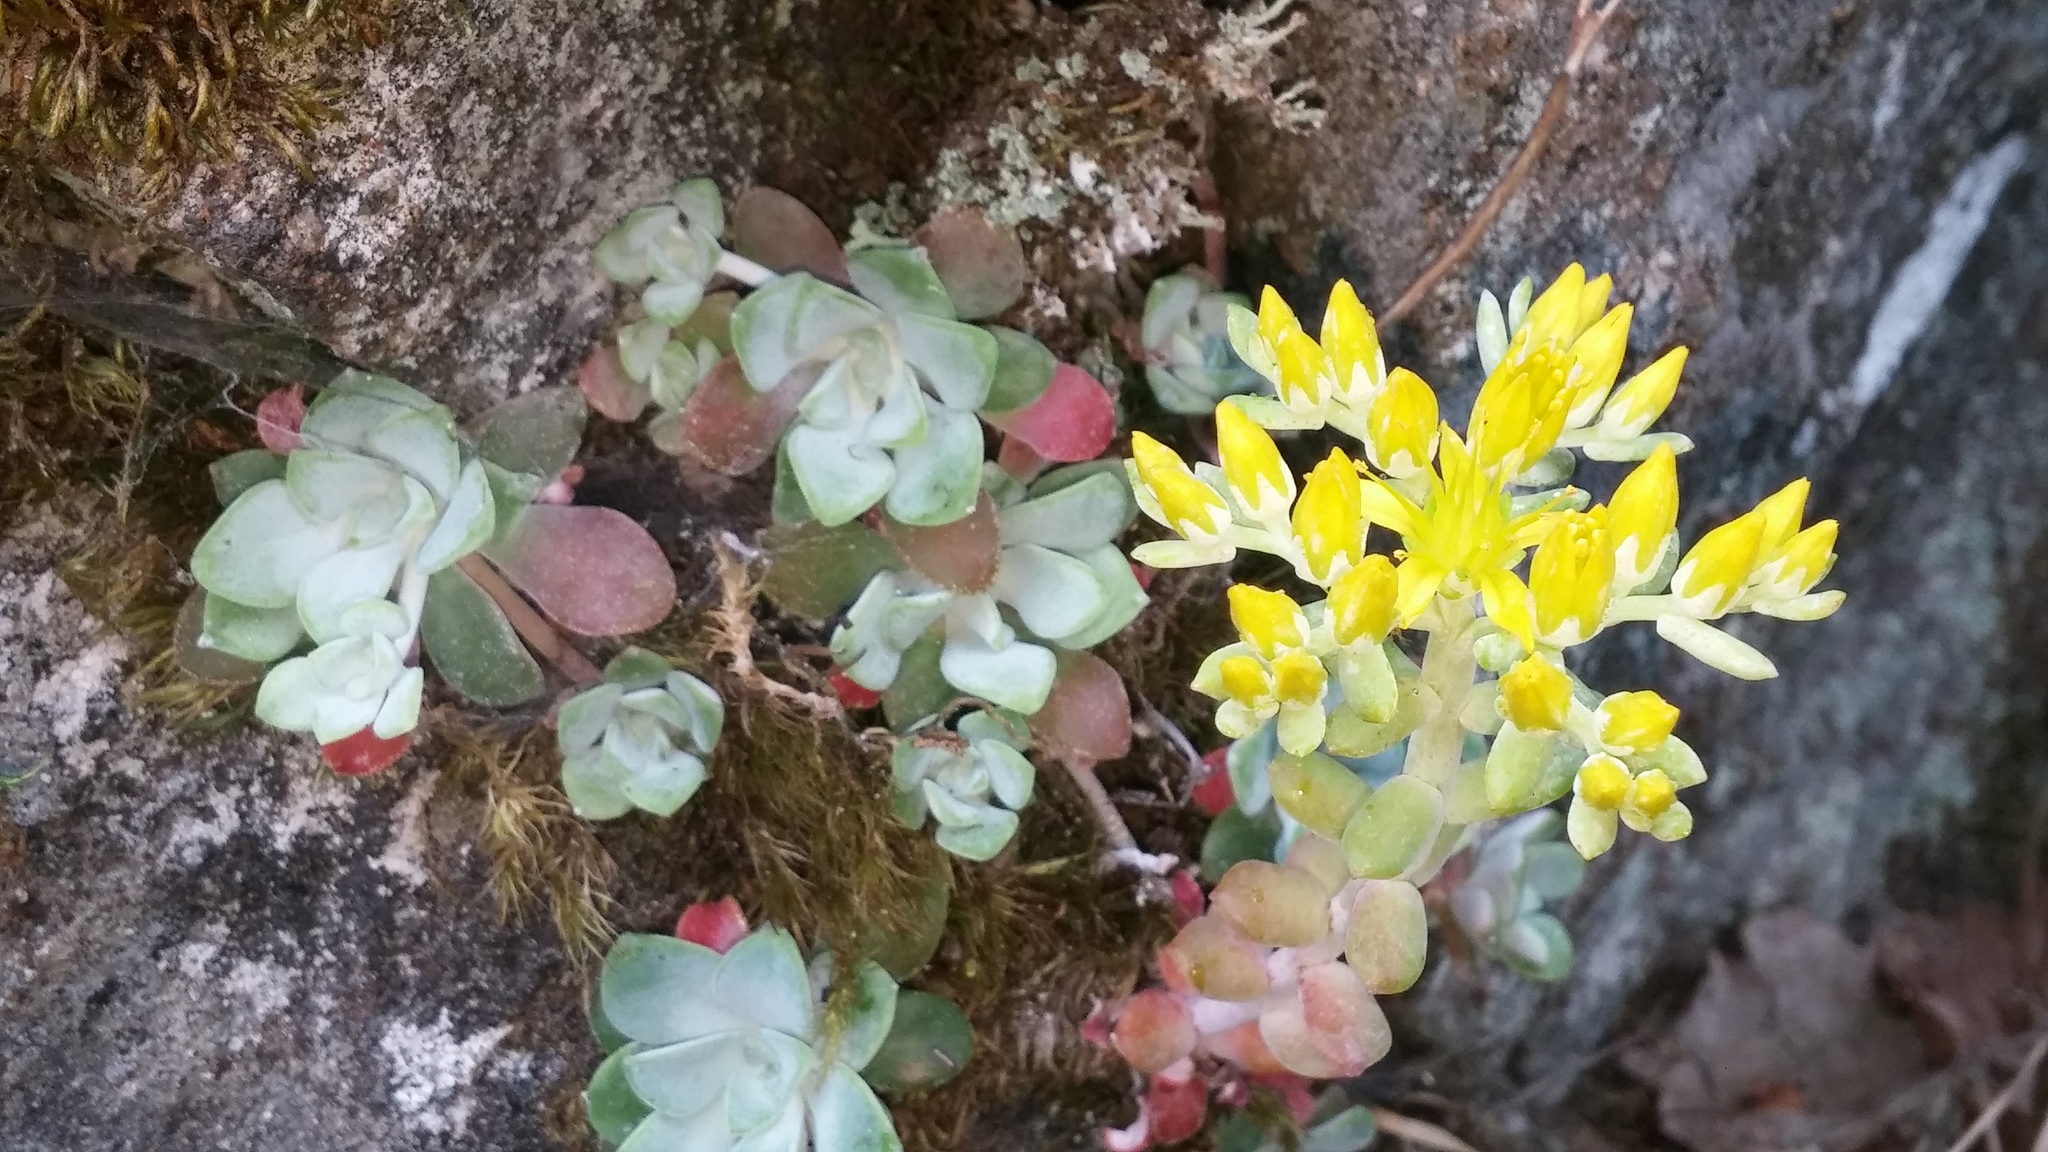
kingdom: Plantae
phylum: Tracheophyta
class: Magnoliopsida
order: Saxifragales
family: Crassulaceae
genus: Sedum
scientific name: Sedum spathulifolium
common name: Colorado stonecrop
